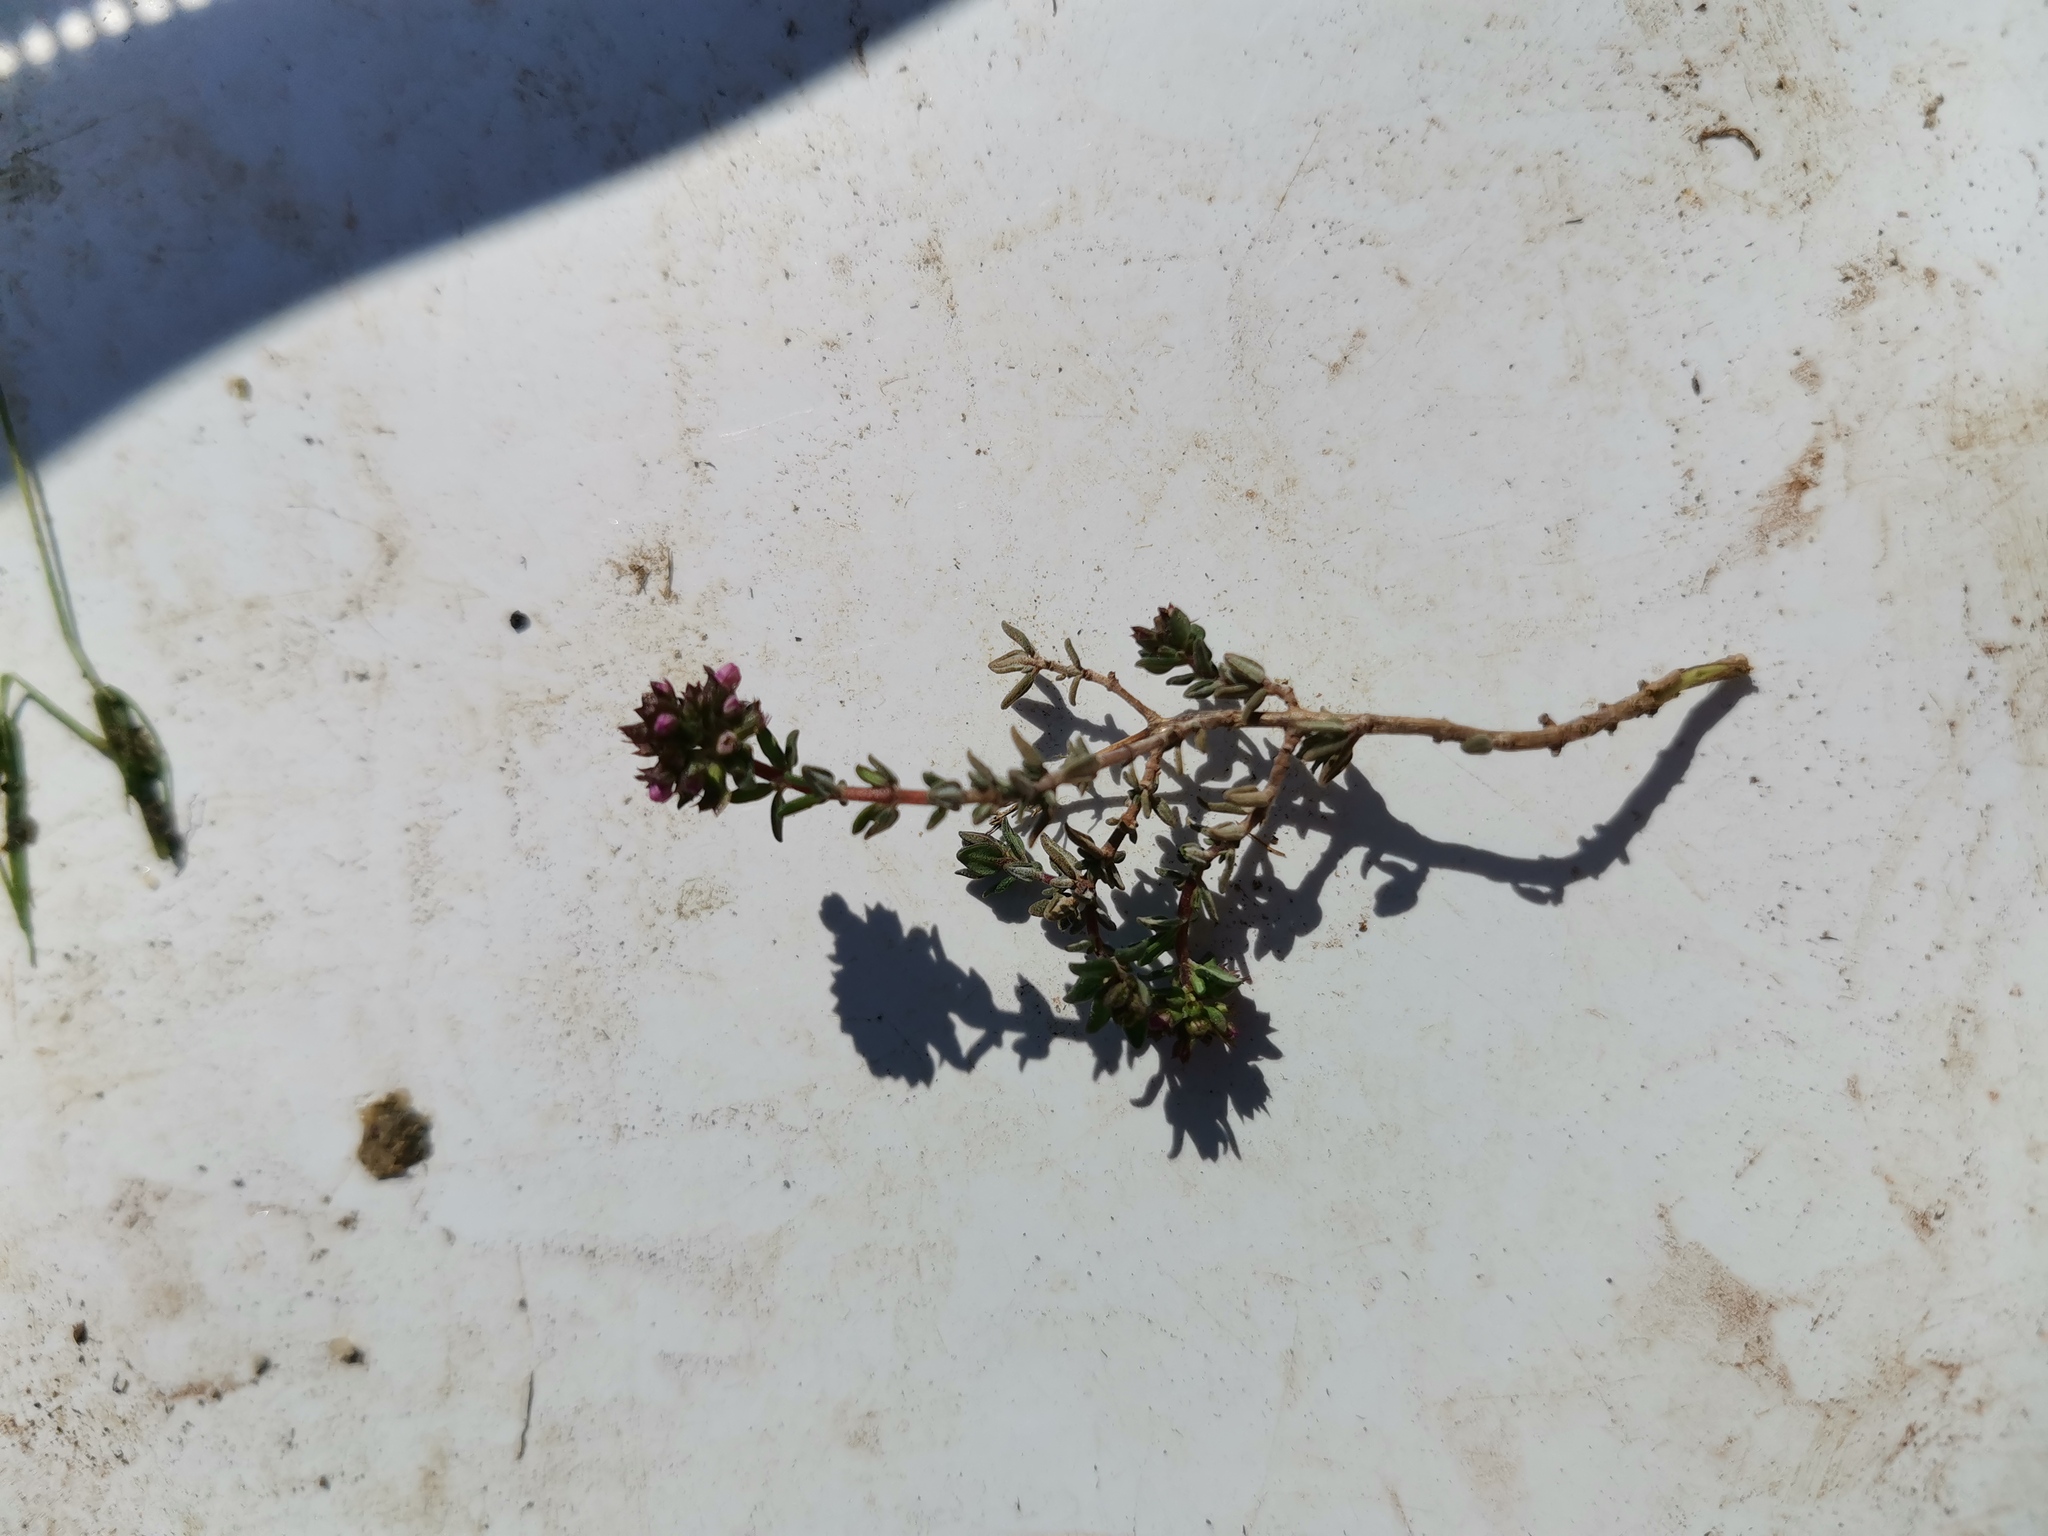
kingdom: Plantae
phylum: Tracheophyta
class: Magnoliopsida
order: Lamiales
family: Lamiaceae
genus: Thymus
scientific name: Thymus vulgaris
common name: Garden thyme
